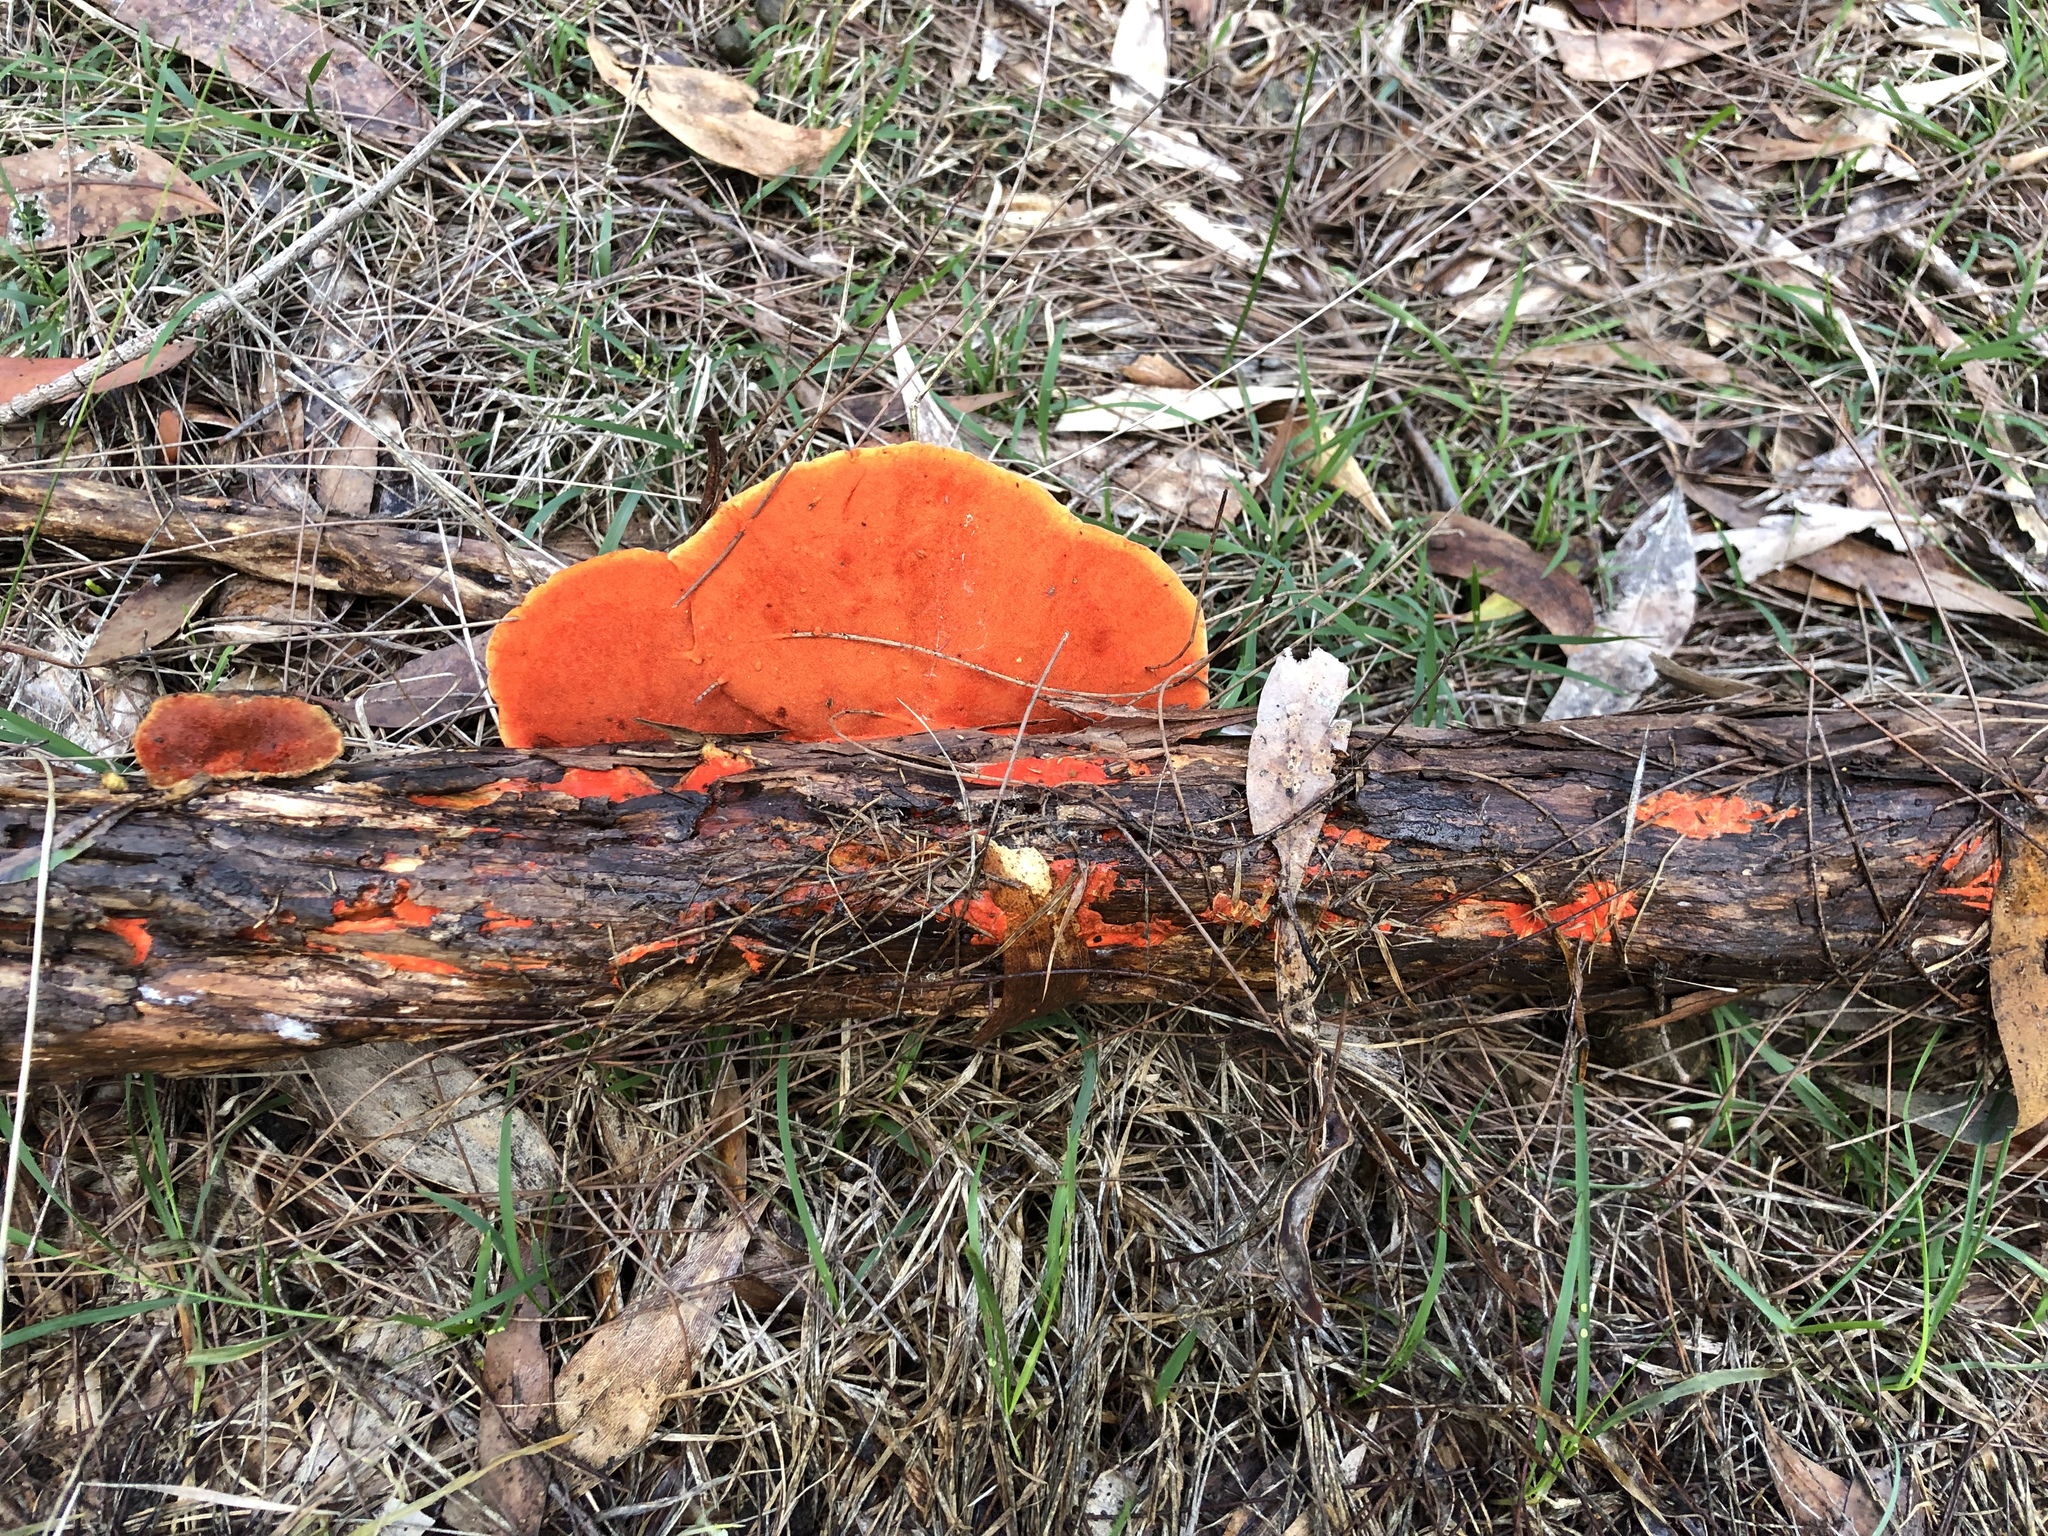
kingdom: Fungi
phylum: Basidiomycota
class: Agaricomycetes
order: Polyporales
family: Polyporaceae
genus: Trametes
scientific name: Trametes coccinea
